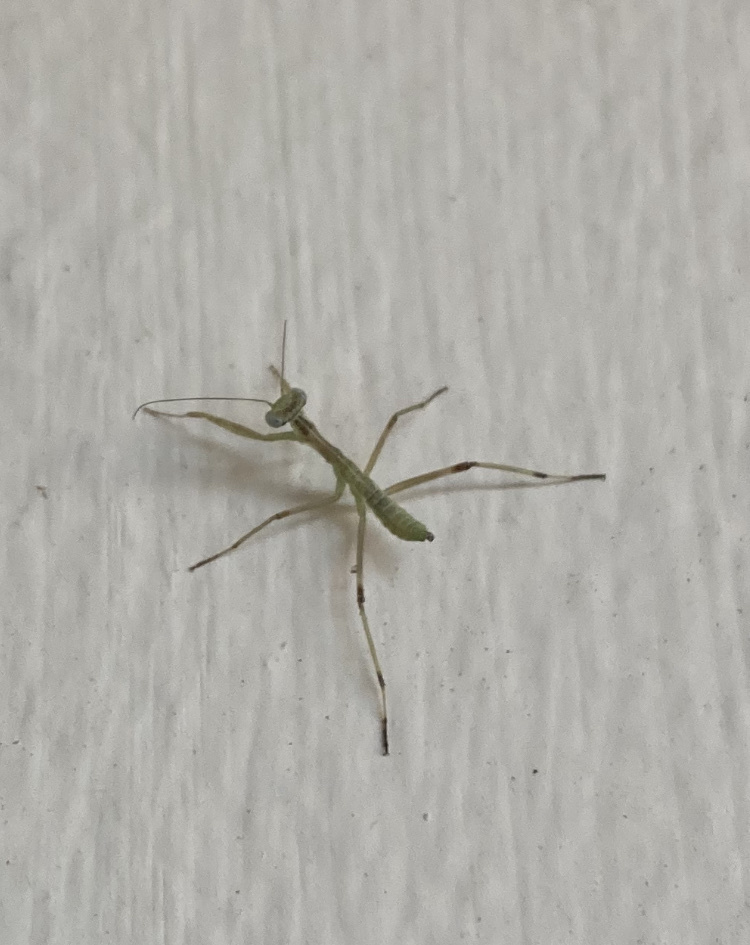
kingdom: Animalia
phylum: Arthropoda
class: Insecta
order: Mantodea
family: Mantidae
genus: Hierodula
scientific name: Hierodula transcaucasica
